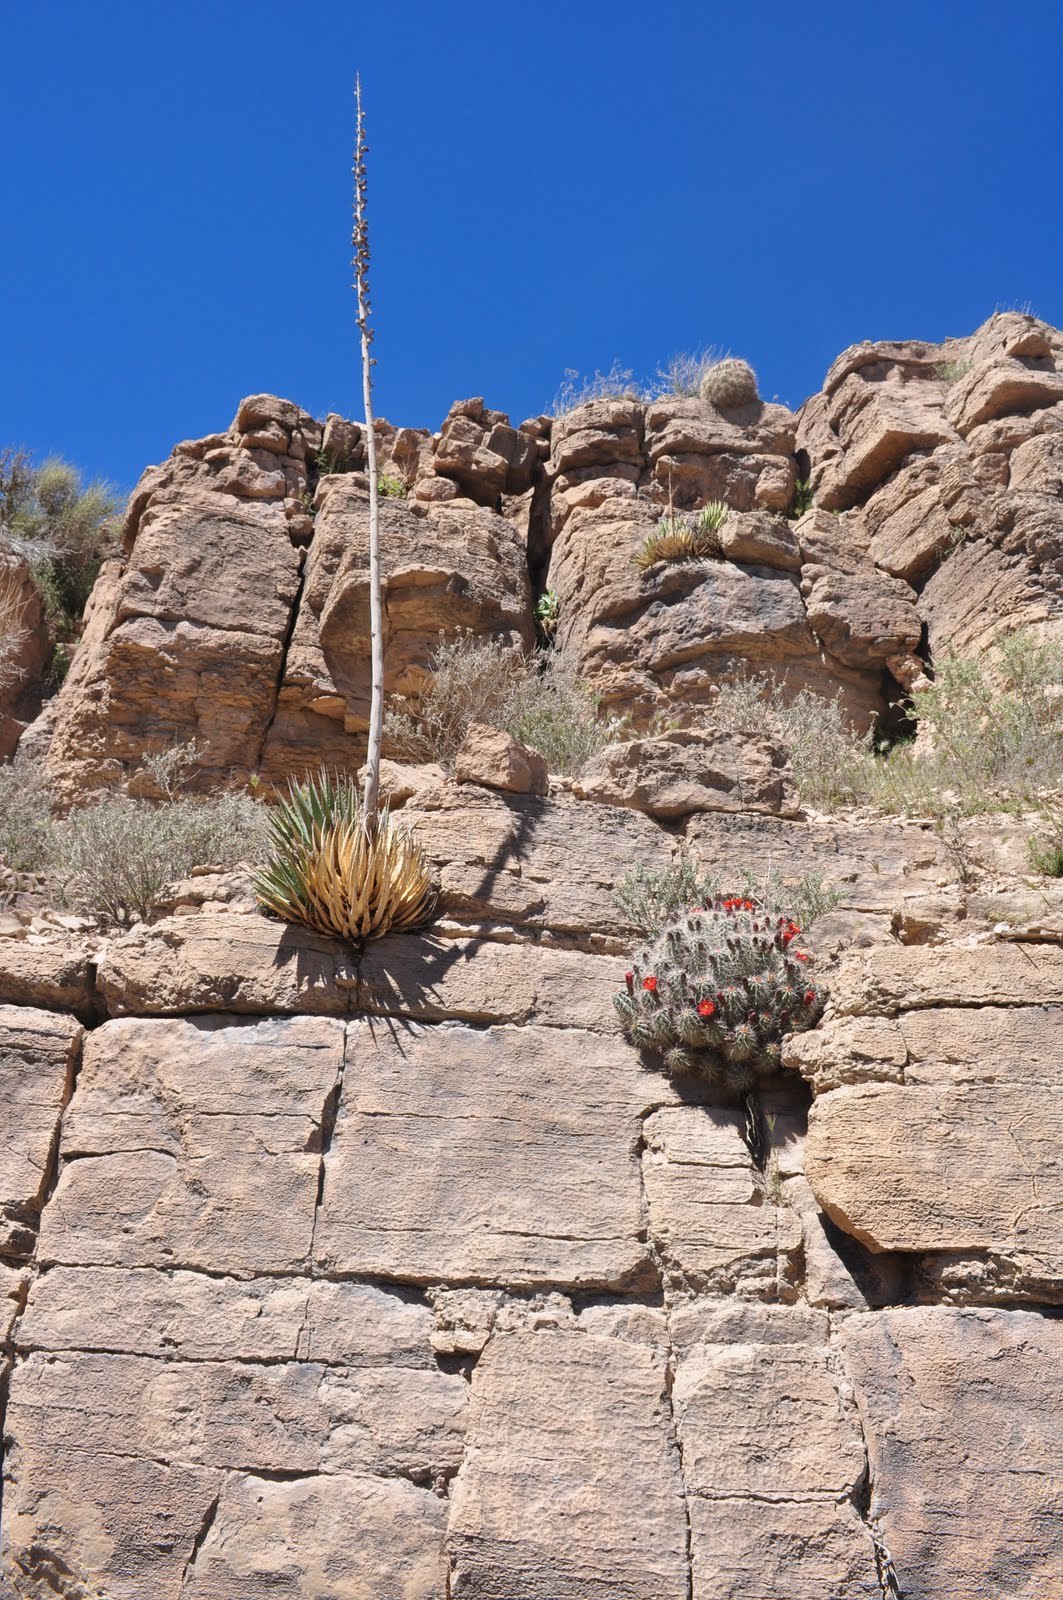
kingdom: Plantae
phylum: Tracheophyta
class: Magnoliopsida
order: Caryophyllales
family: Cactaceae
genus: Echinocereus
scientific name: Echinocereus bakeri
